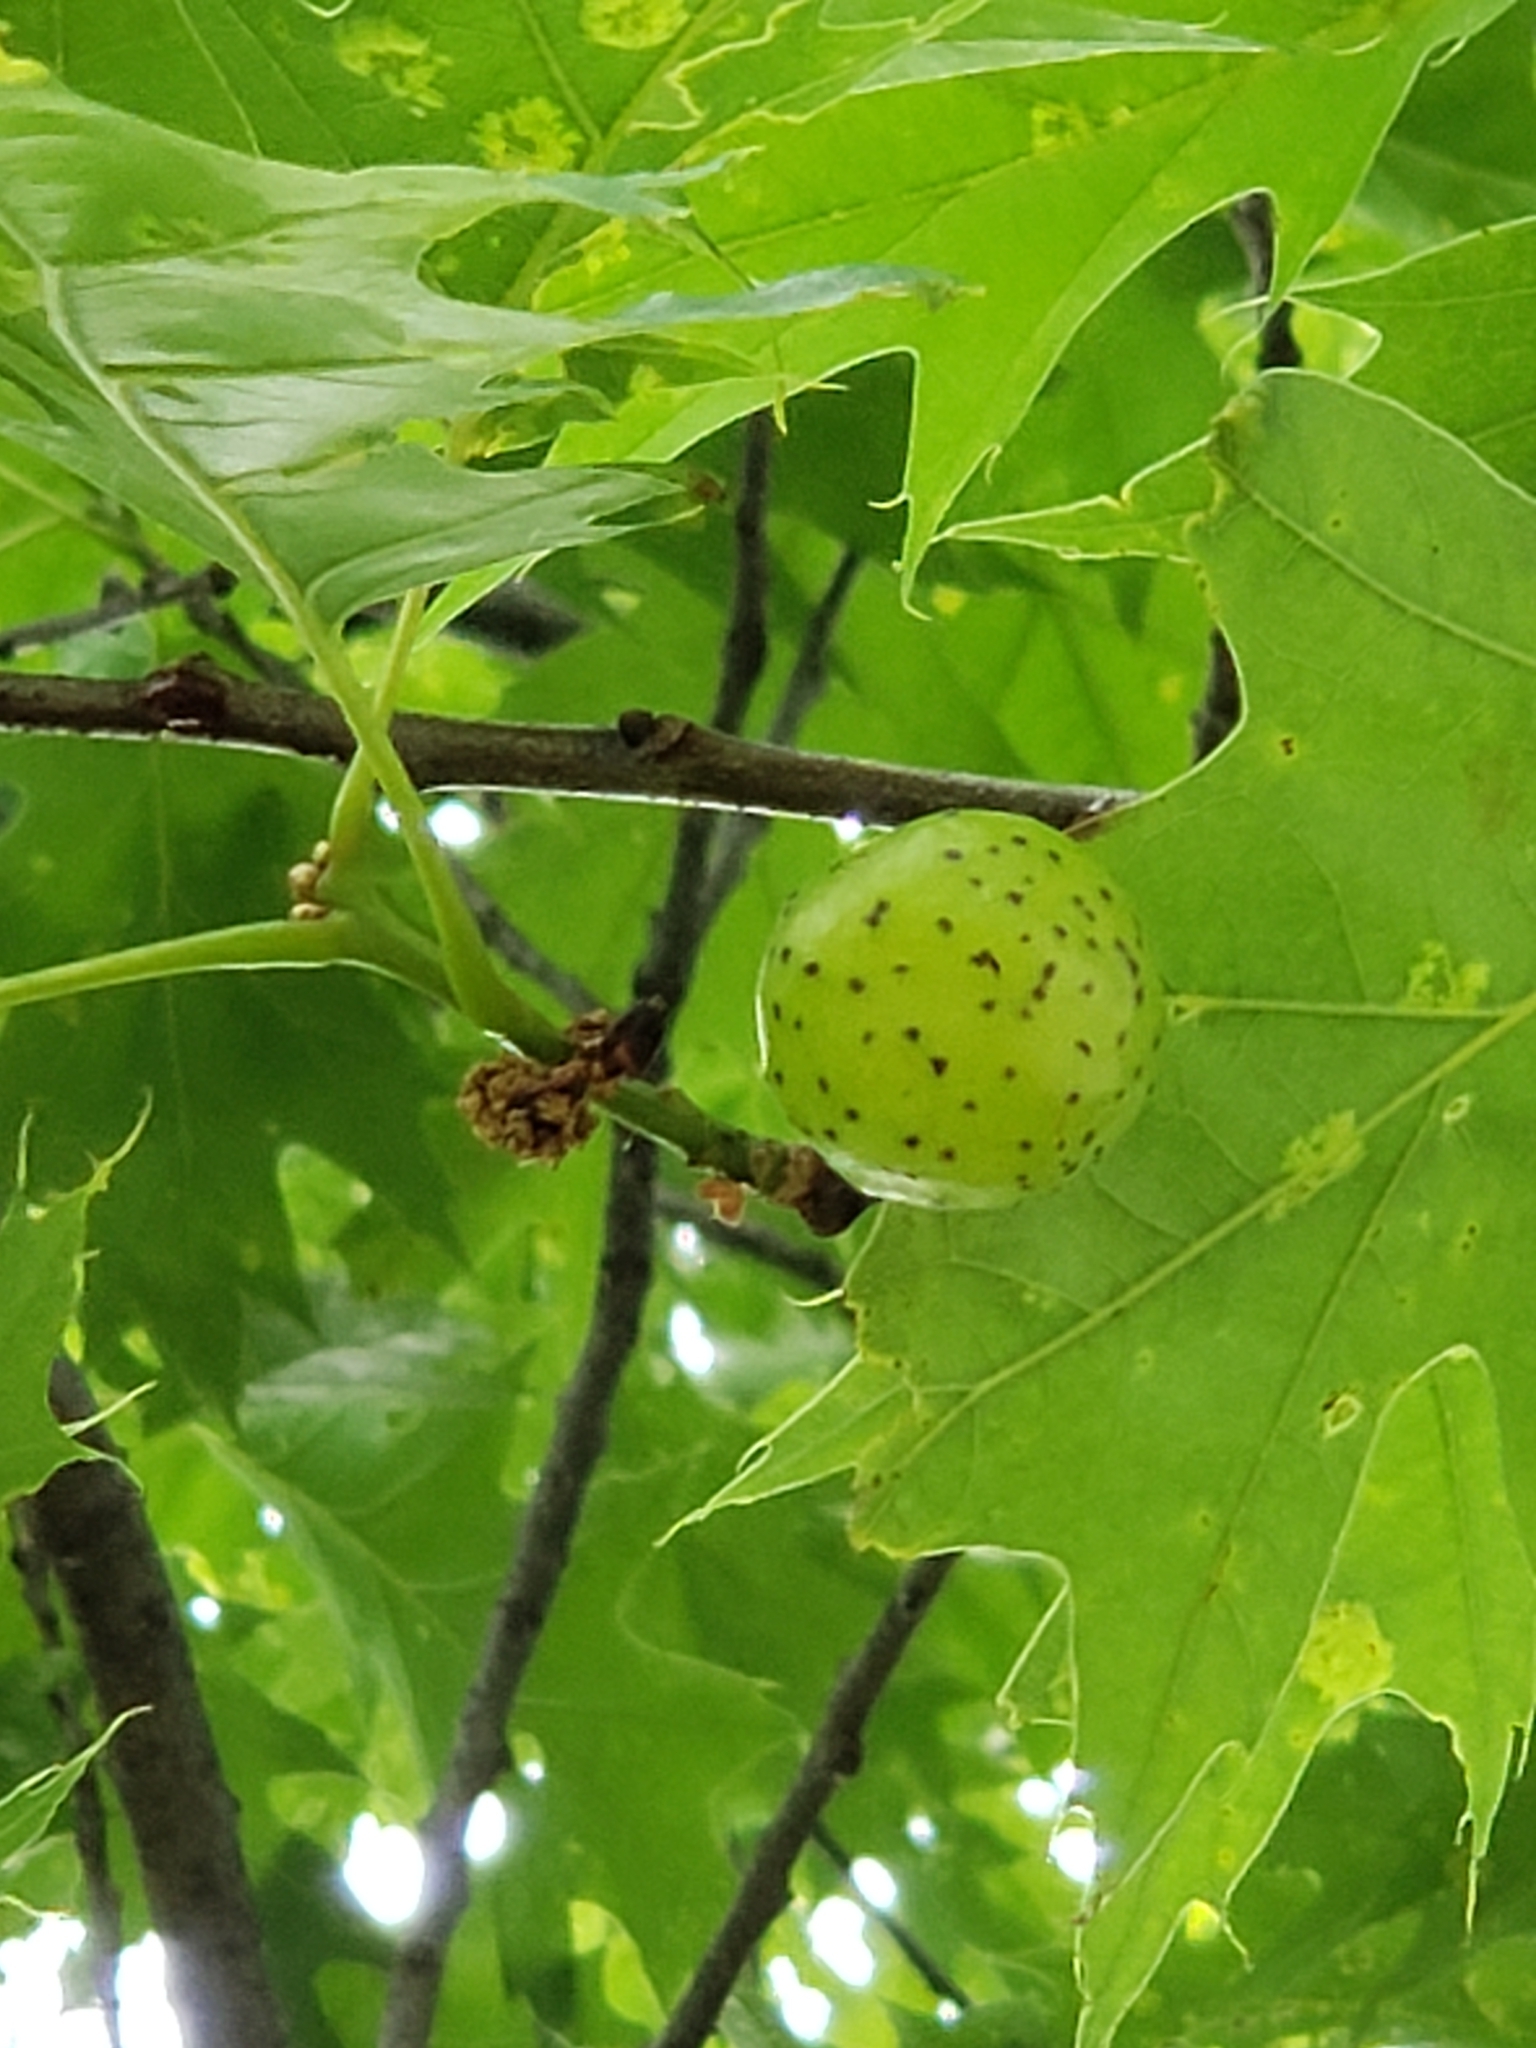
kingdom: Animalia
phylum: Arthropoda
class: Insecta
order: Hymenoptera
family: Cynipidae
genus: Amphibolips
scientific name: Amphibolips
